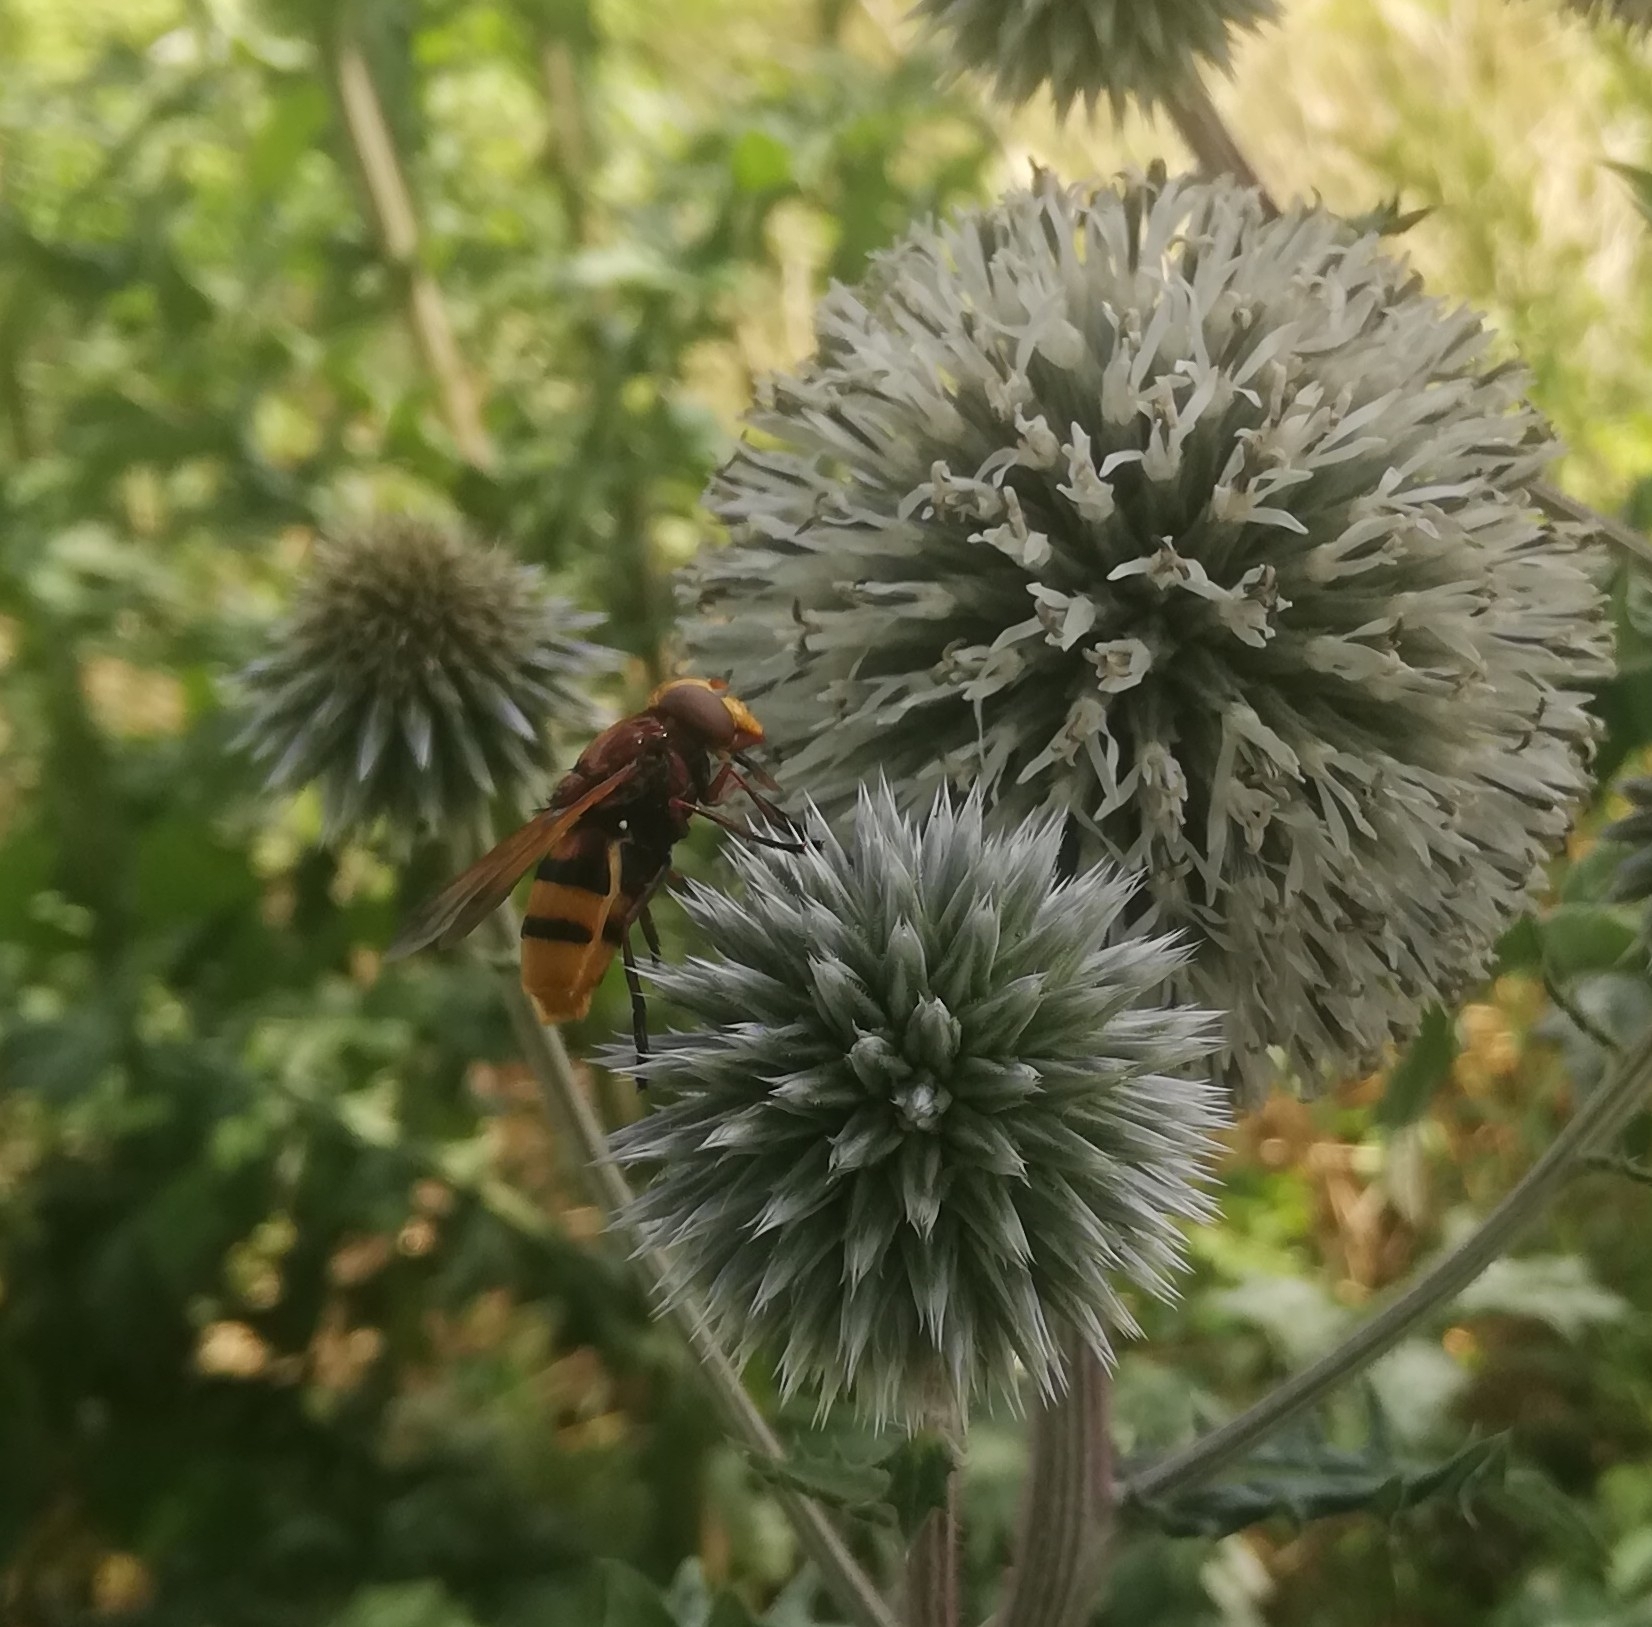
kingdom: Animalia
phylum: Arthropoda
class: Insecta
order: Diptera
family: Syrphidae
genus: Volucella
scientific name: Volucella zonaria
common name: Hornet hoverfly
